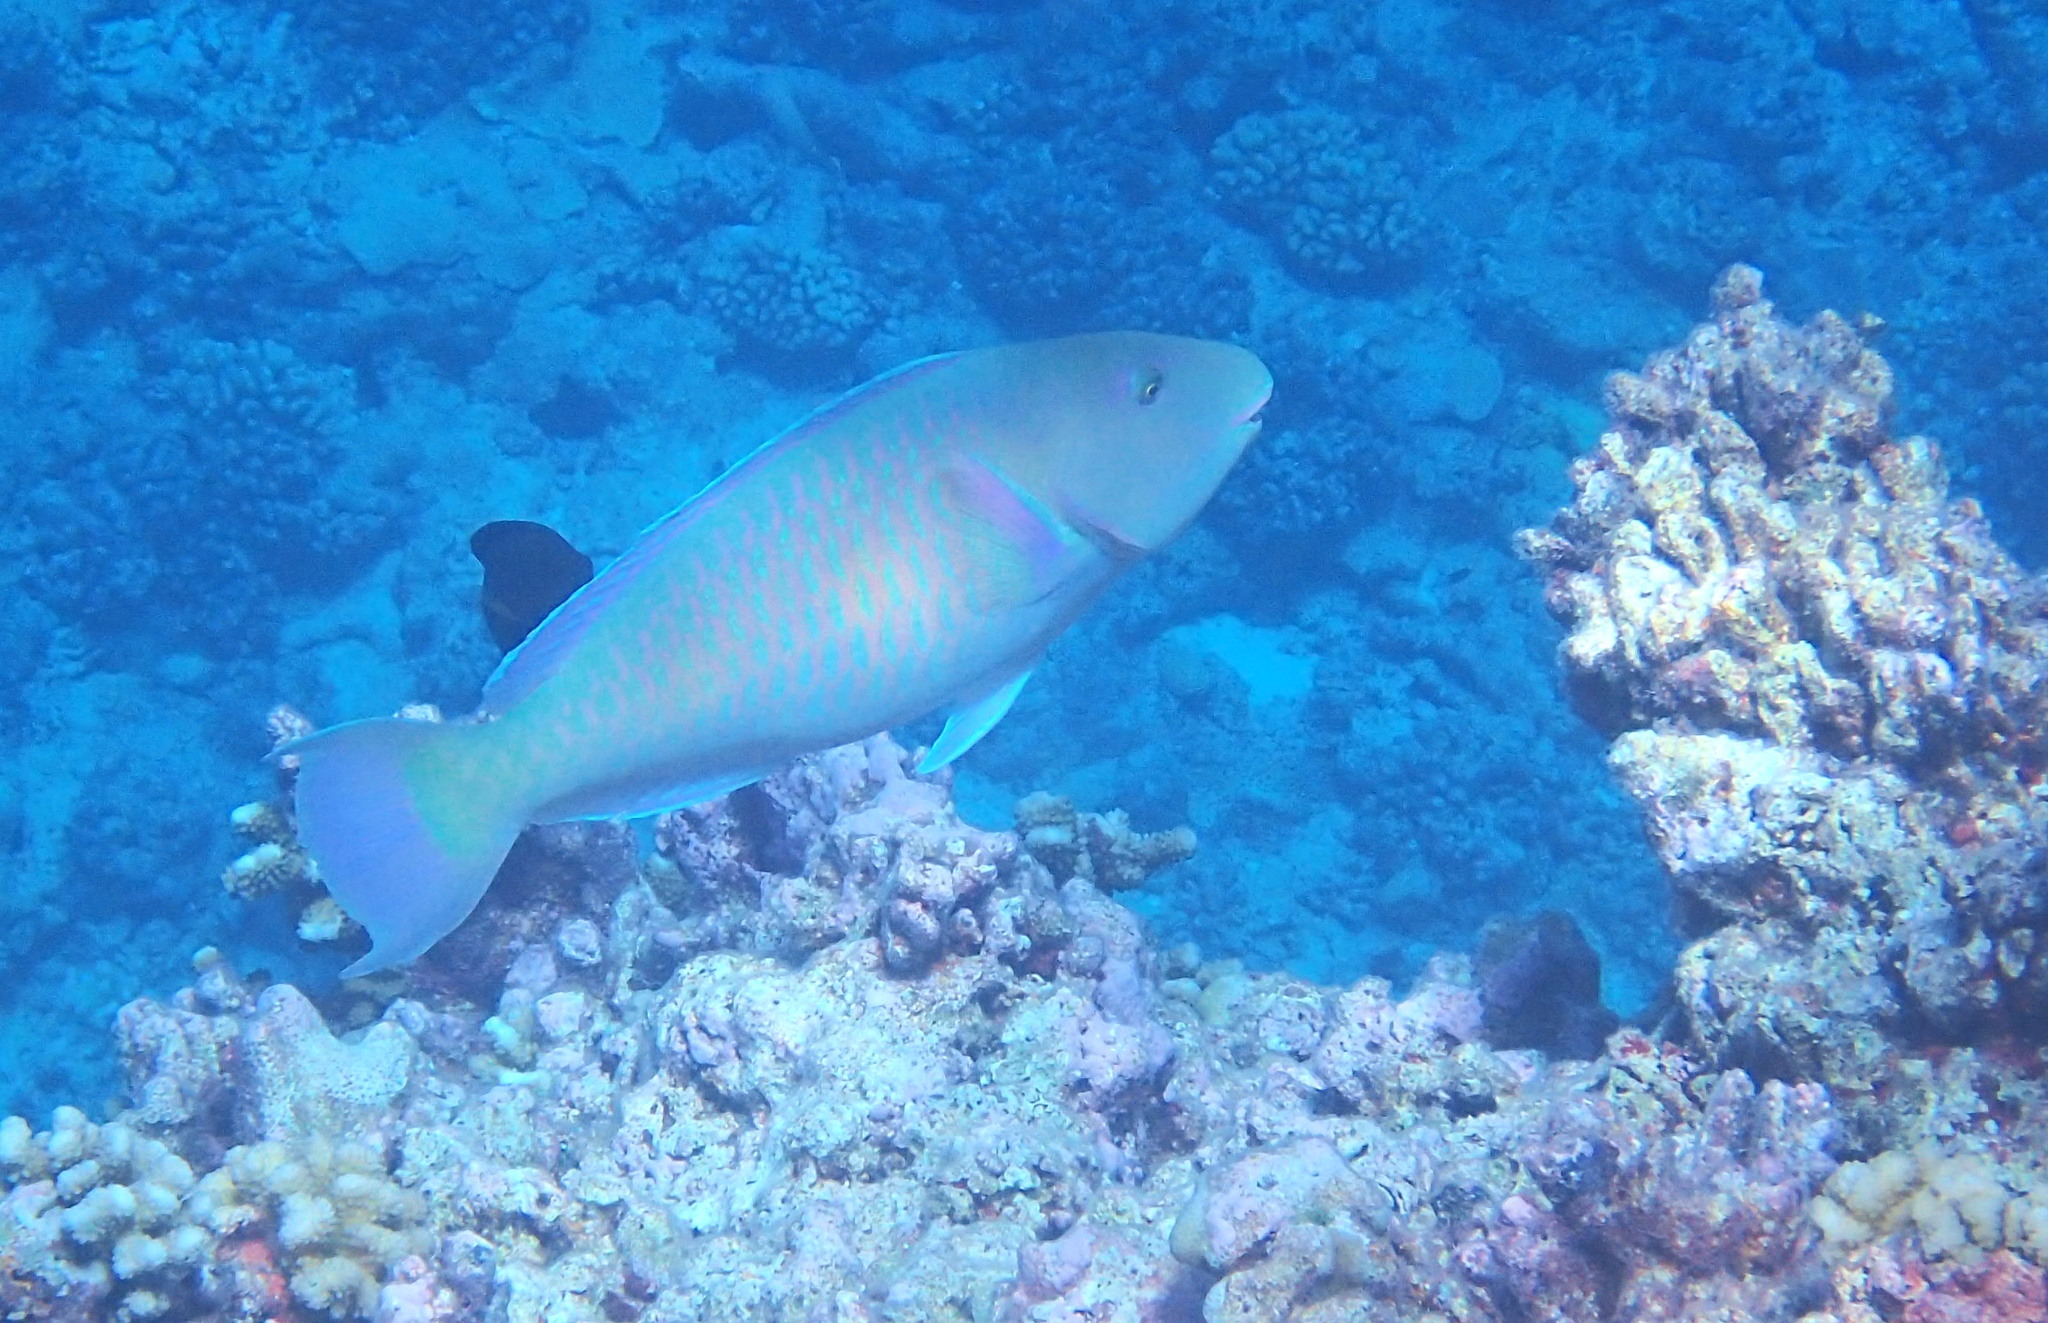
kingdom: Animalia
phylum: Chordata
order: Perciformes
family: Scaridae
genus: Hipposcarus
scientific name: Hipposcarus longiceps
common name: Pacific longnose parrotfish
